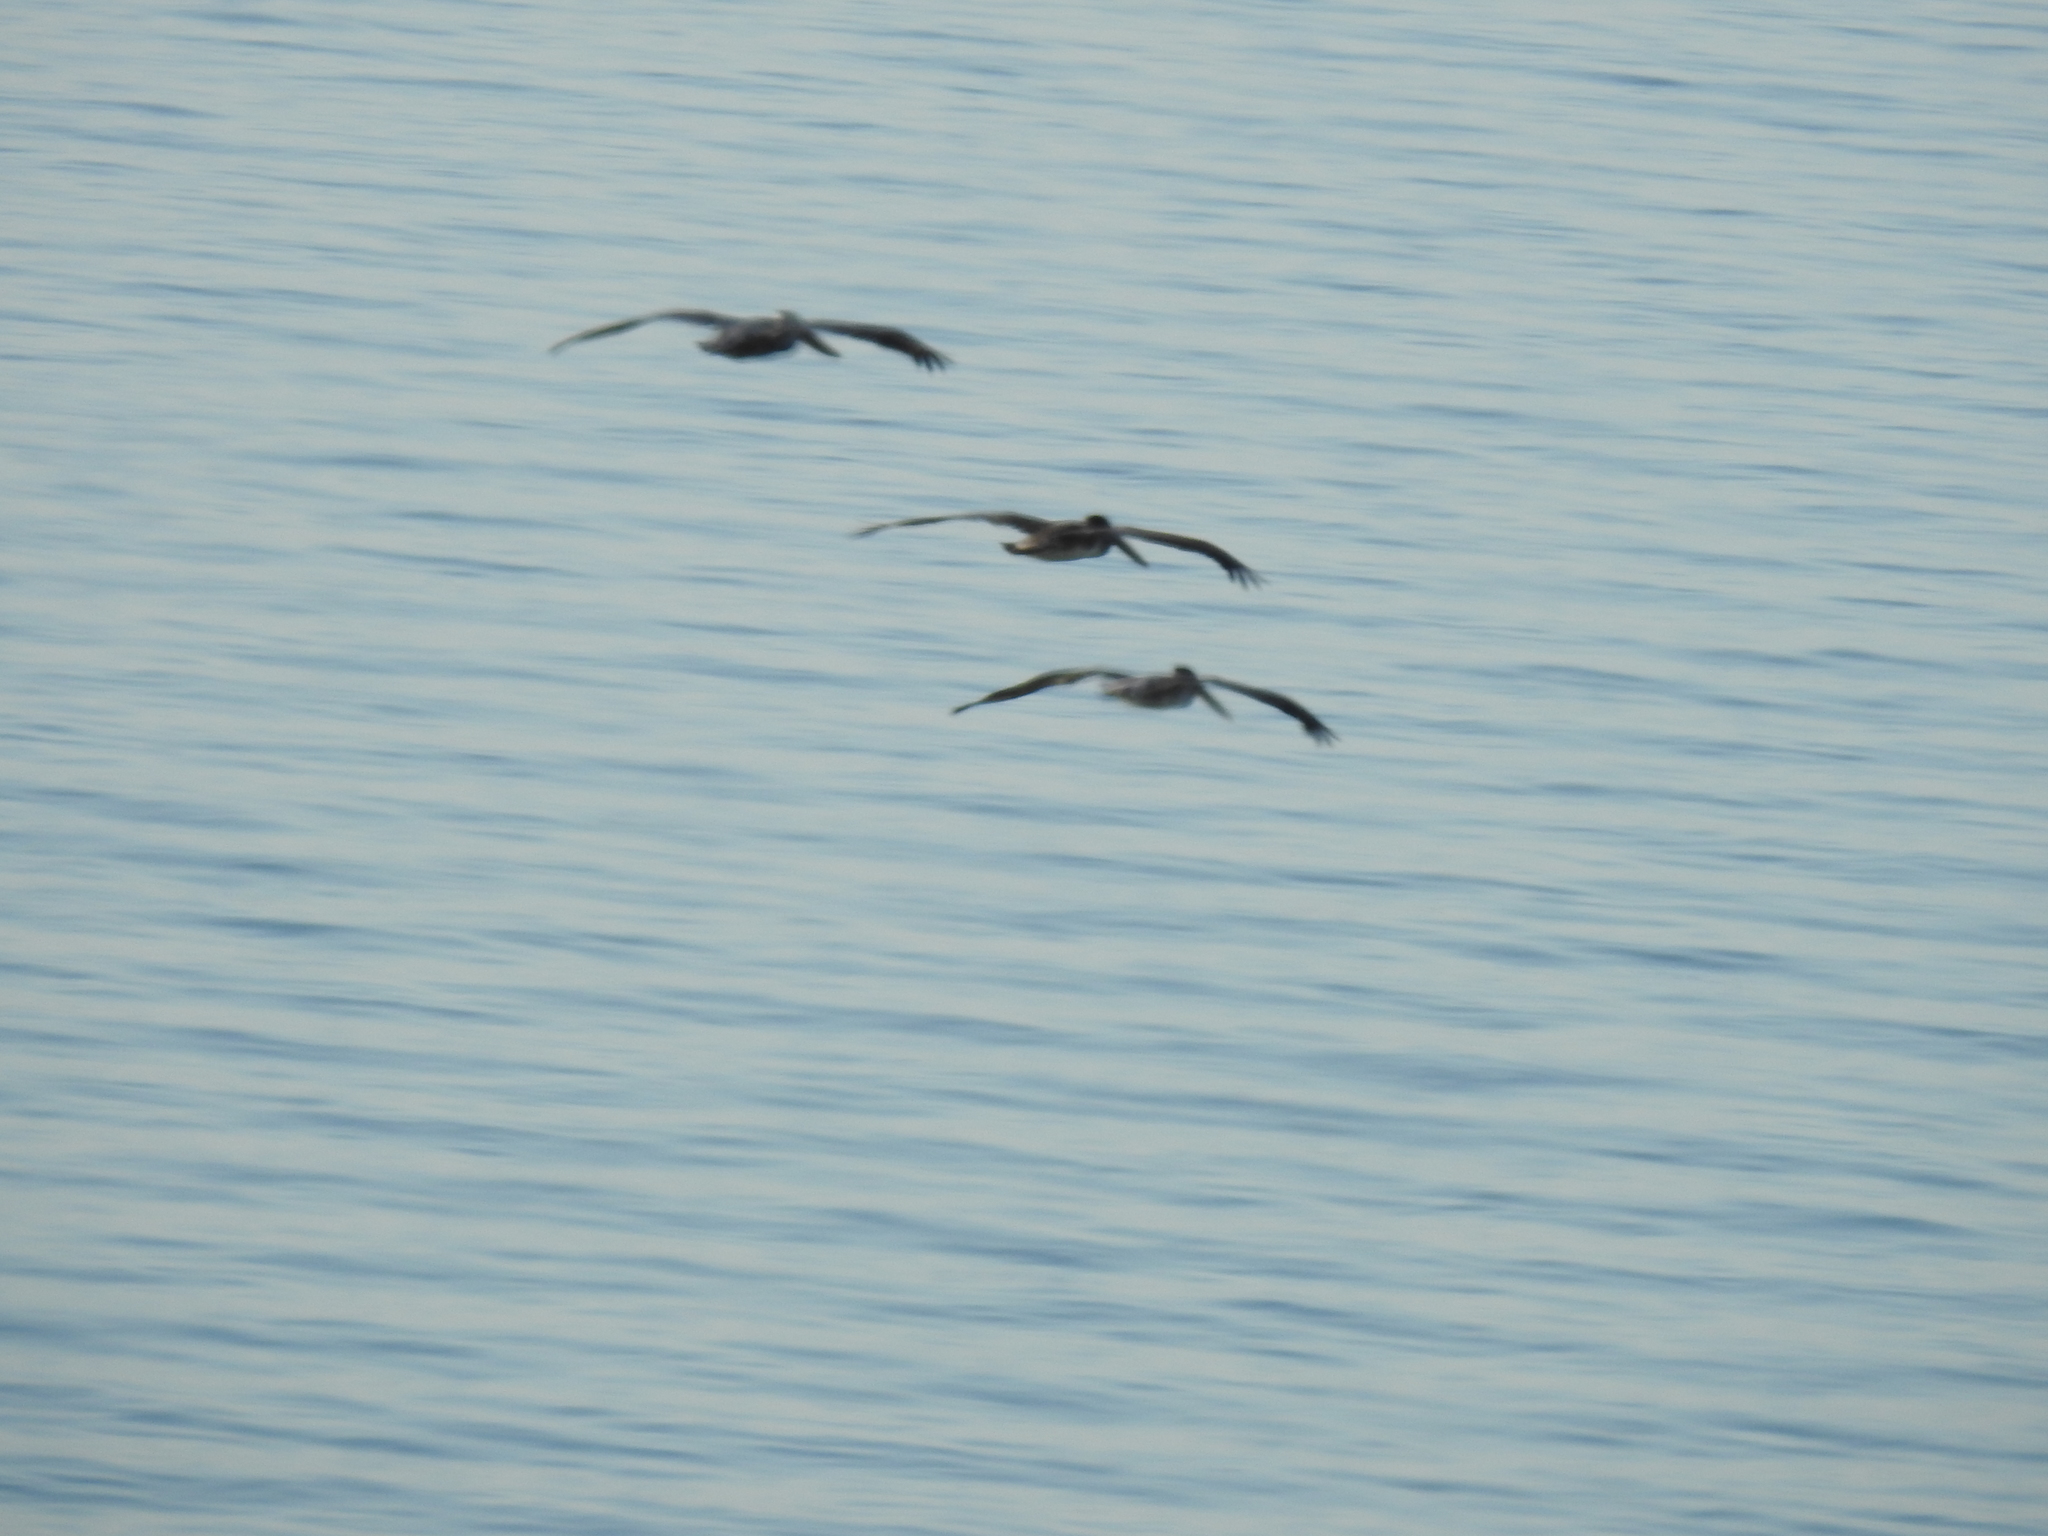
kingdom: Animalia
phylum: Chordata
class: Aves
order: Pelecaniformes
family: Pelecanidae
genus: Pelecanus
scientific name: Pelecanus occidentalis
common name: Brown pelican
